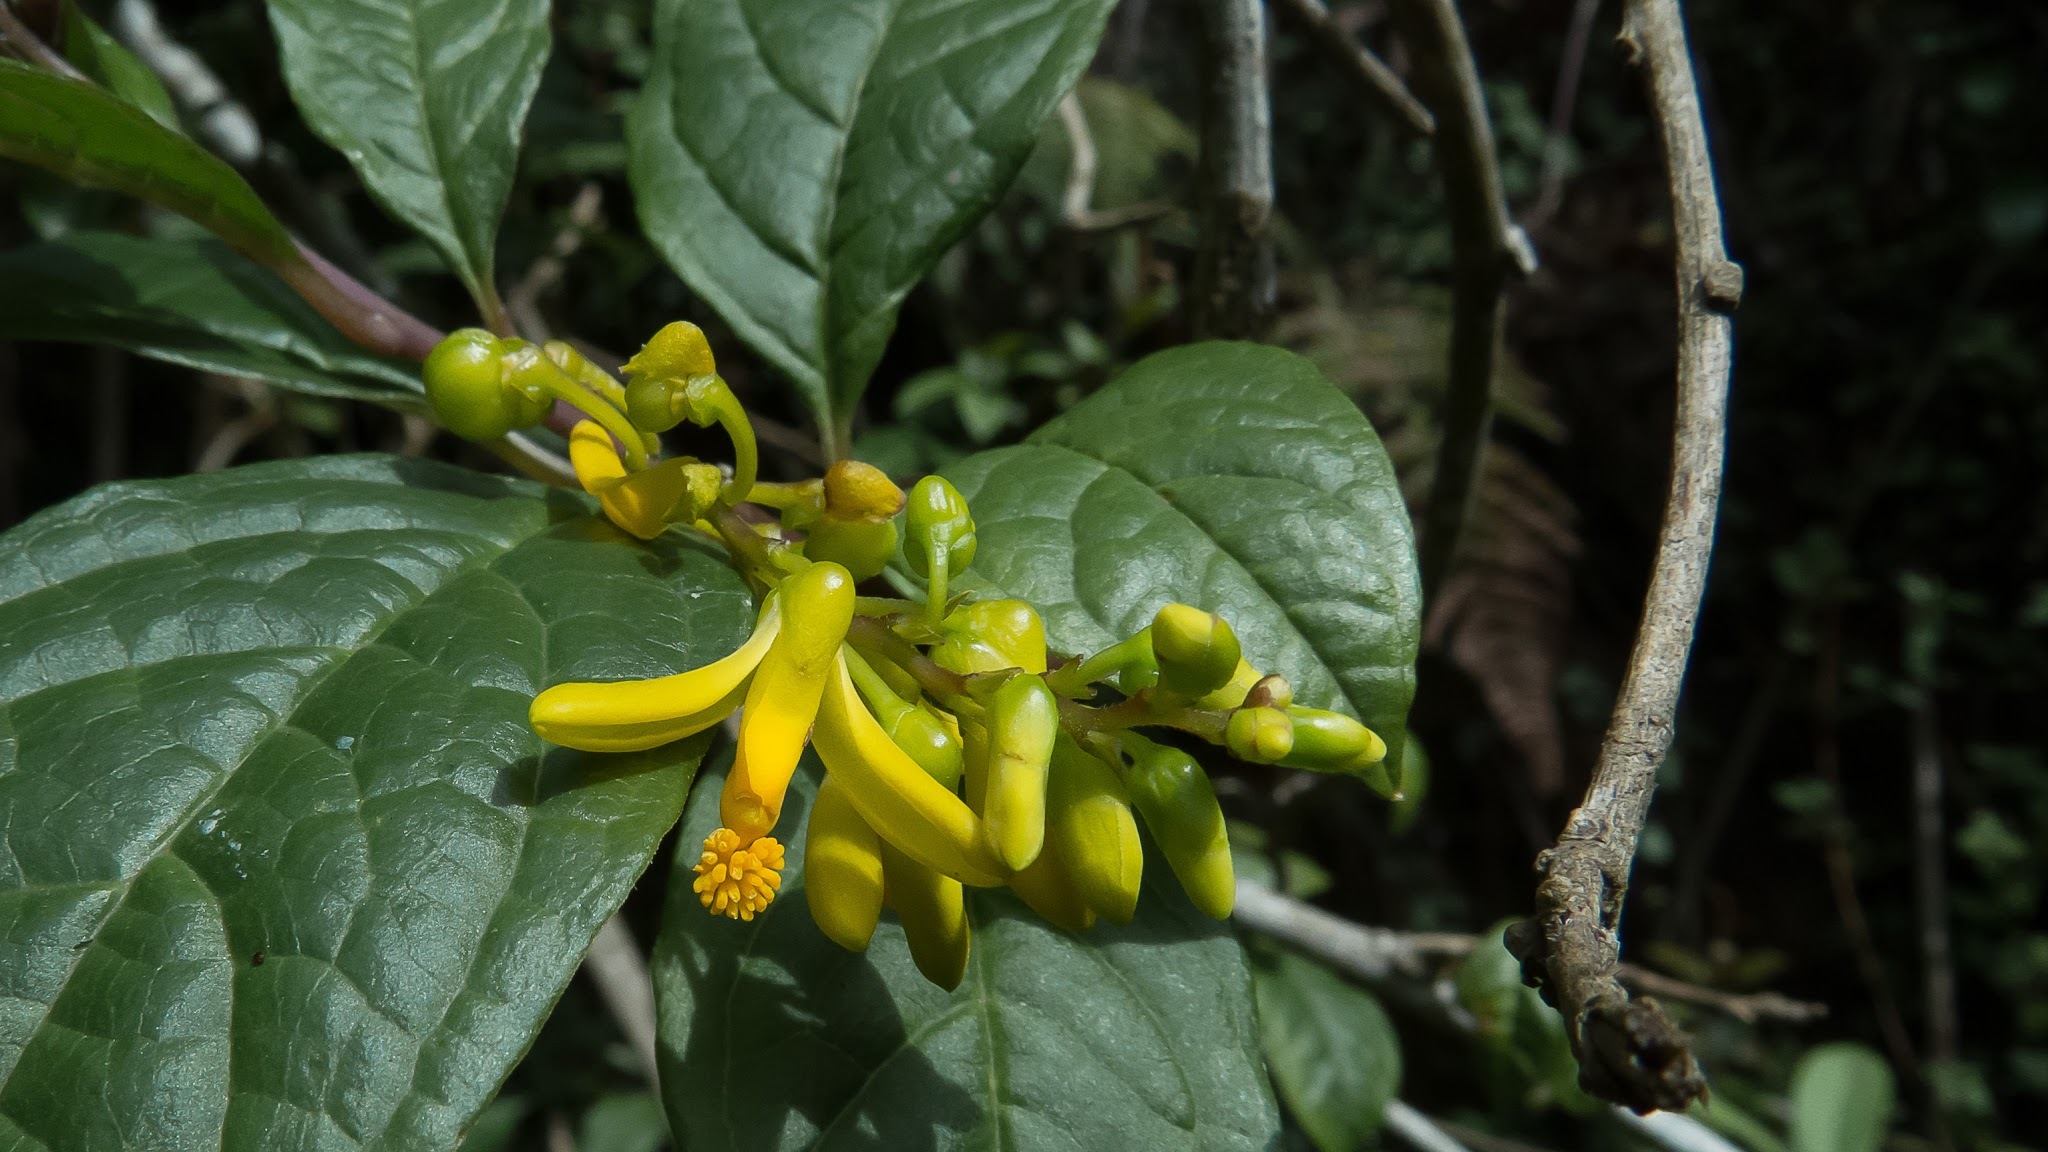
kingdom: Plantae
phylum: Tracheophyta
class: Magnoliopsida
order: Fabales
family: Polygalaceae
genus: Polygala
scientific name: Polygala arillata
